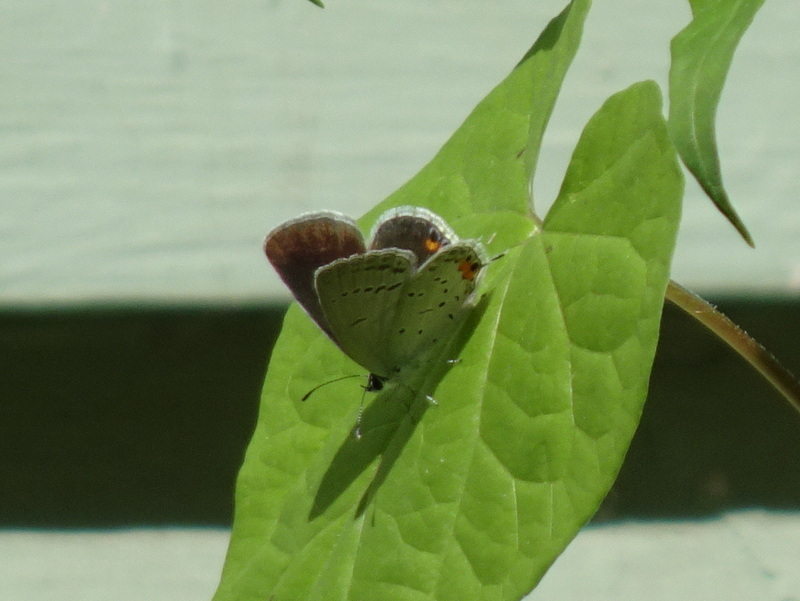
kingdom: Animalia
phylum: Arthropoda
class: Insecta
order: Lepidoptera
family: Lycaenidae
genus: Elkalyce
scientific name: Elkalyce comyntas
